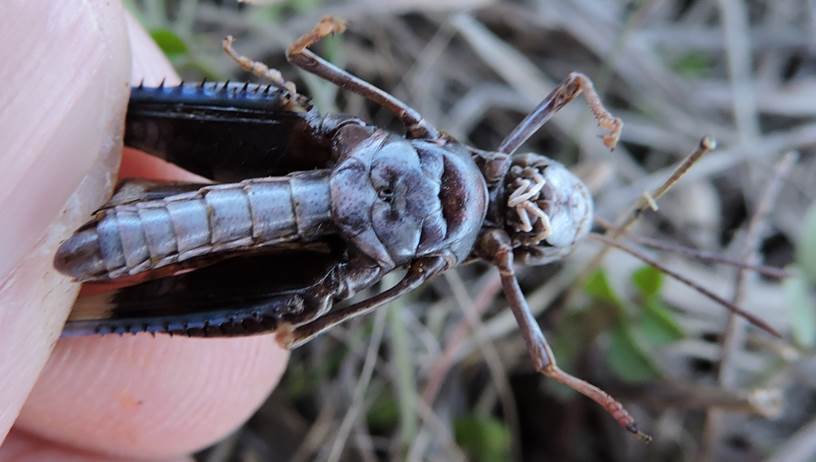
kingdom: Animalia
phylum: Arthropoda
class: Insecta
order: Orthoptera
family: Acrididae
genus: Encoptolophus
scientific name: Encoptolophus costalis
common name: Dusky grasshopper
